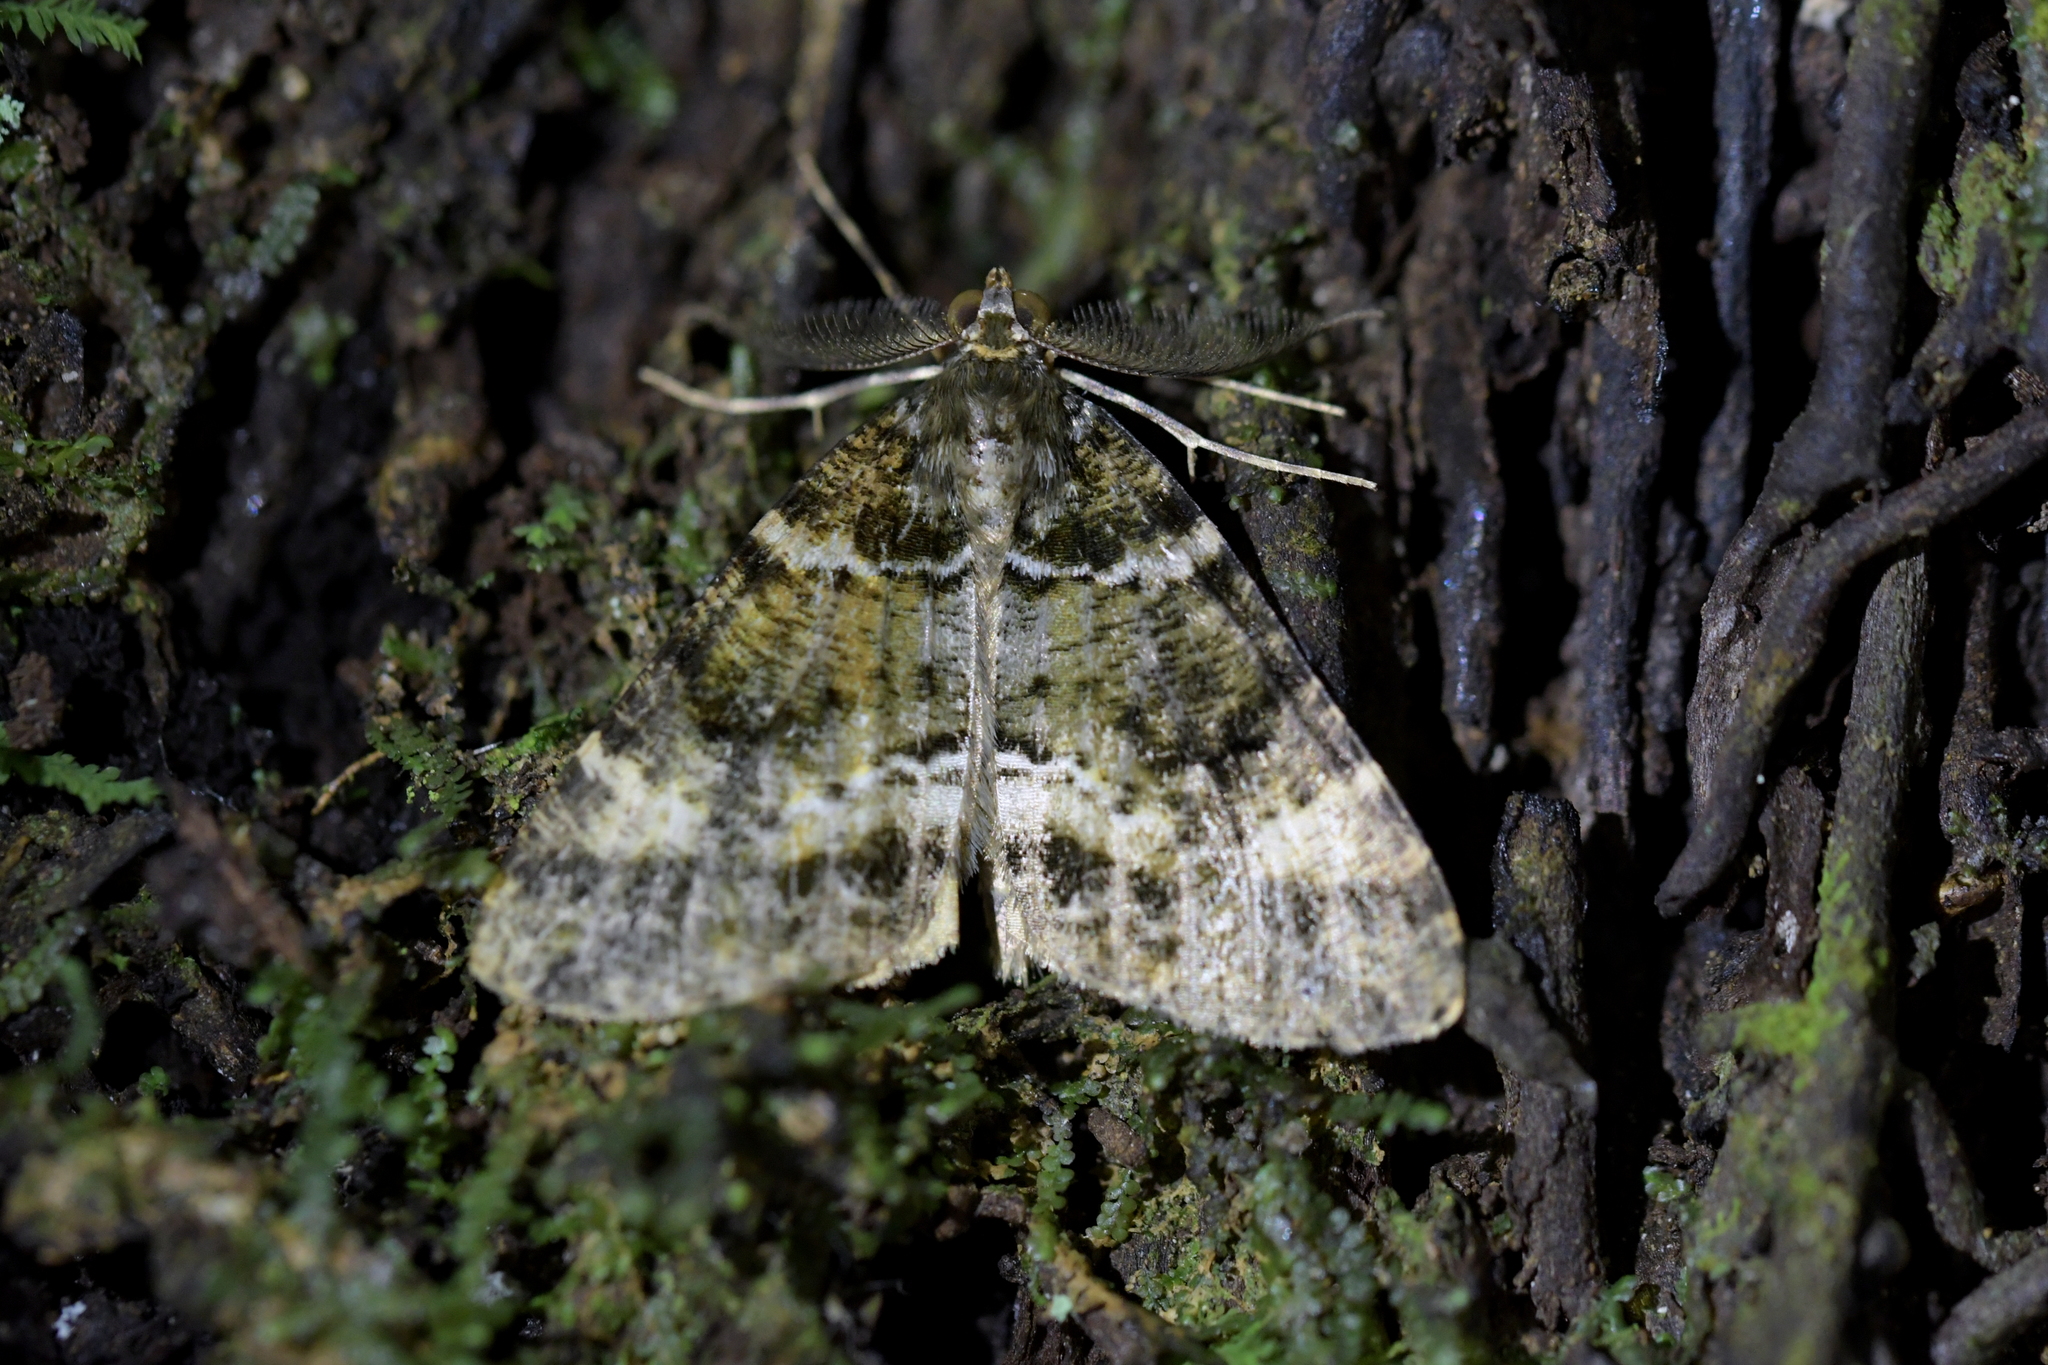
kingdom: Animalia
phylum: Arthropoda
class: Insecta
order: Lepidoptera
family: Geometridae
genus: Pseudocoremia
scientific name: Pseudocoremia productata
